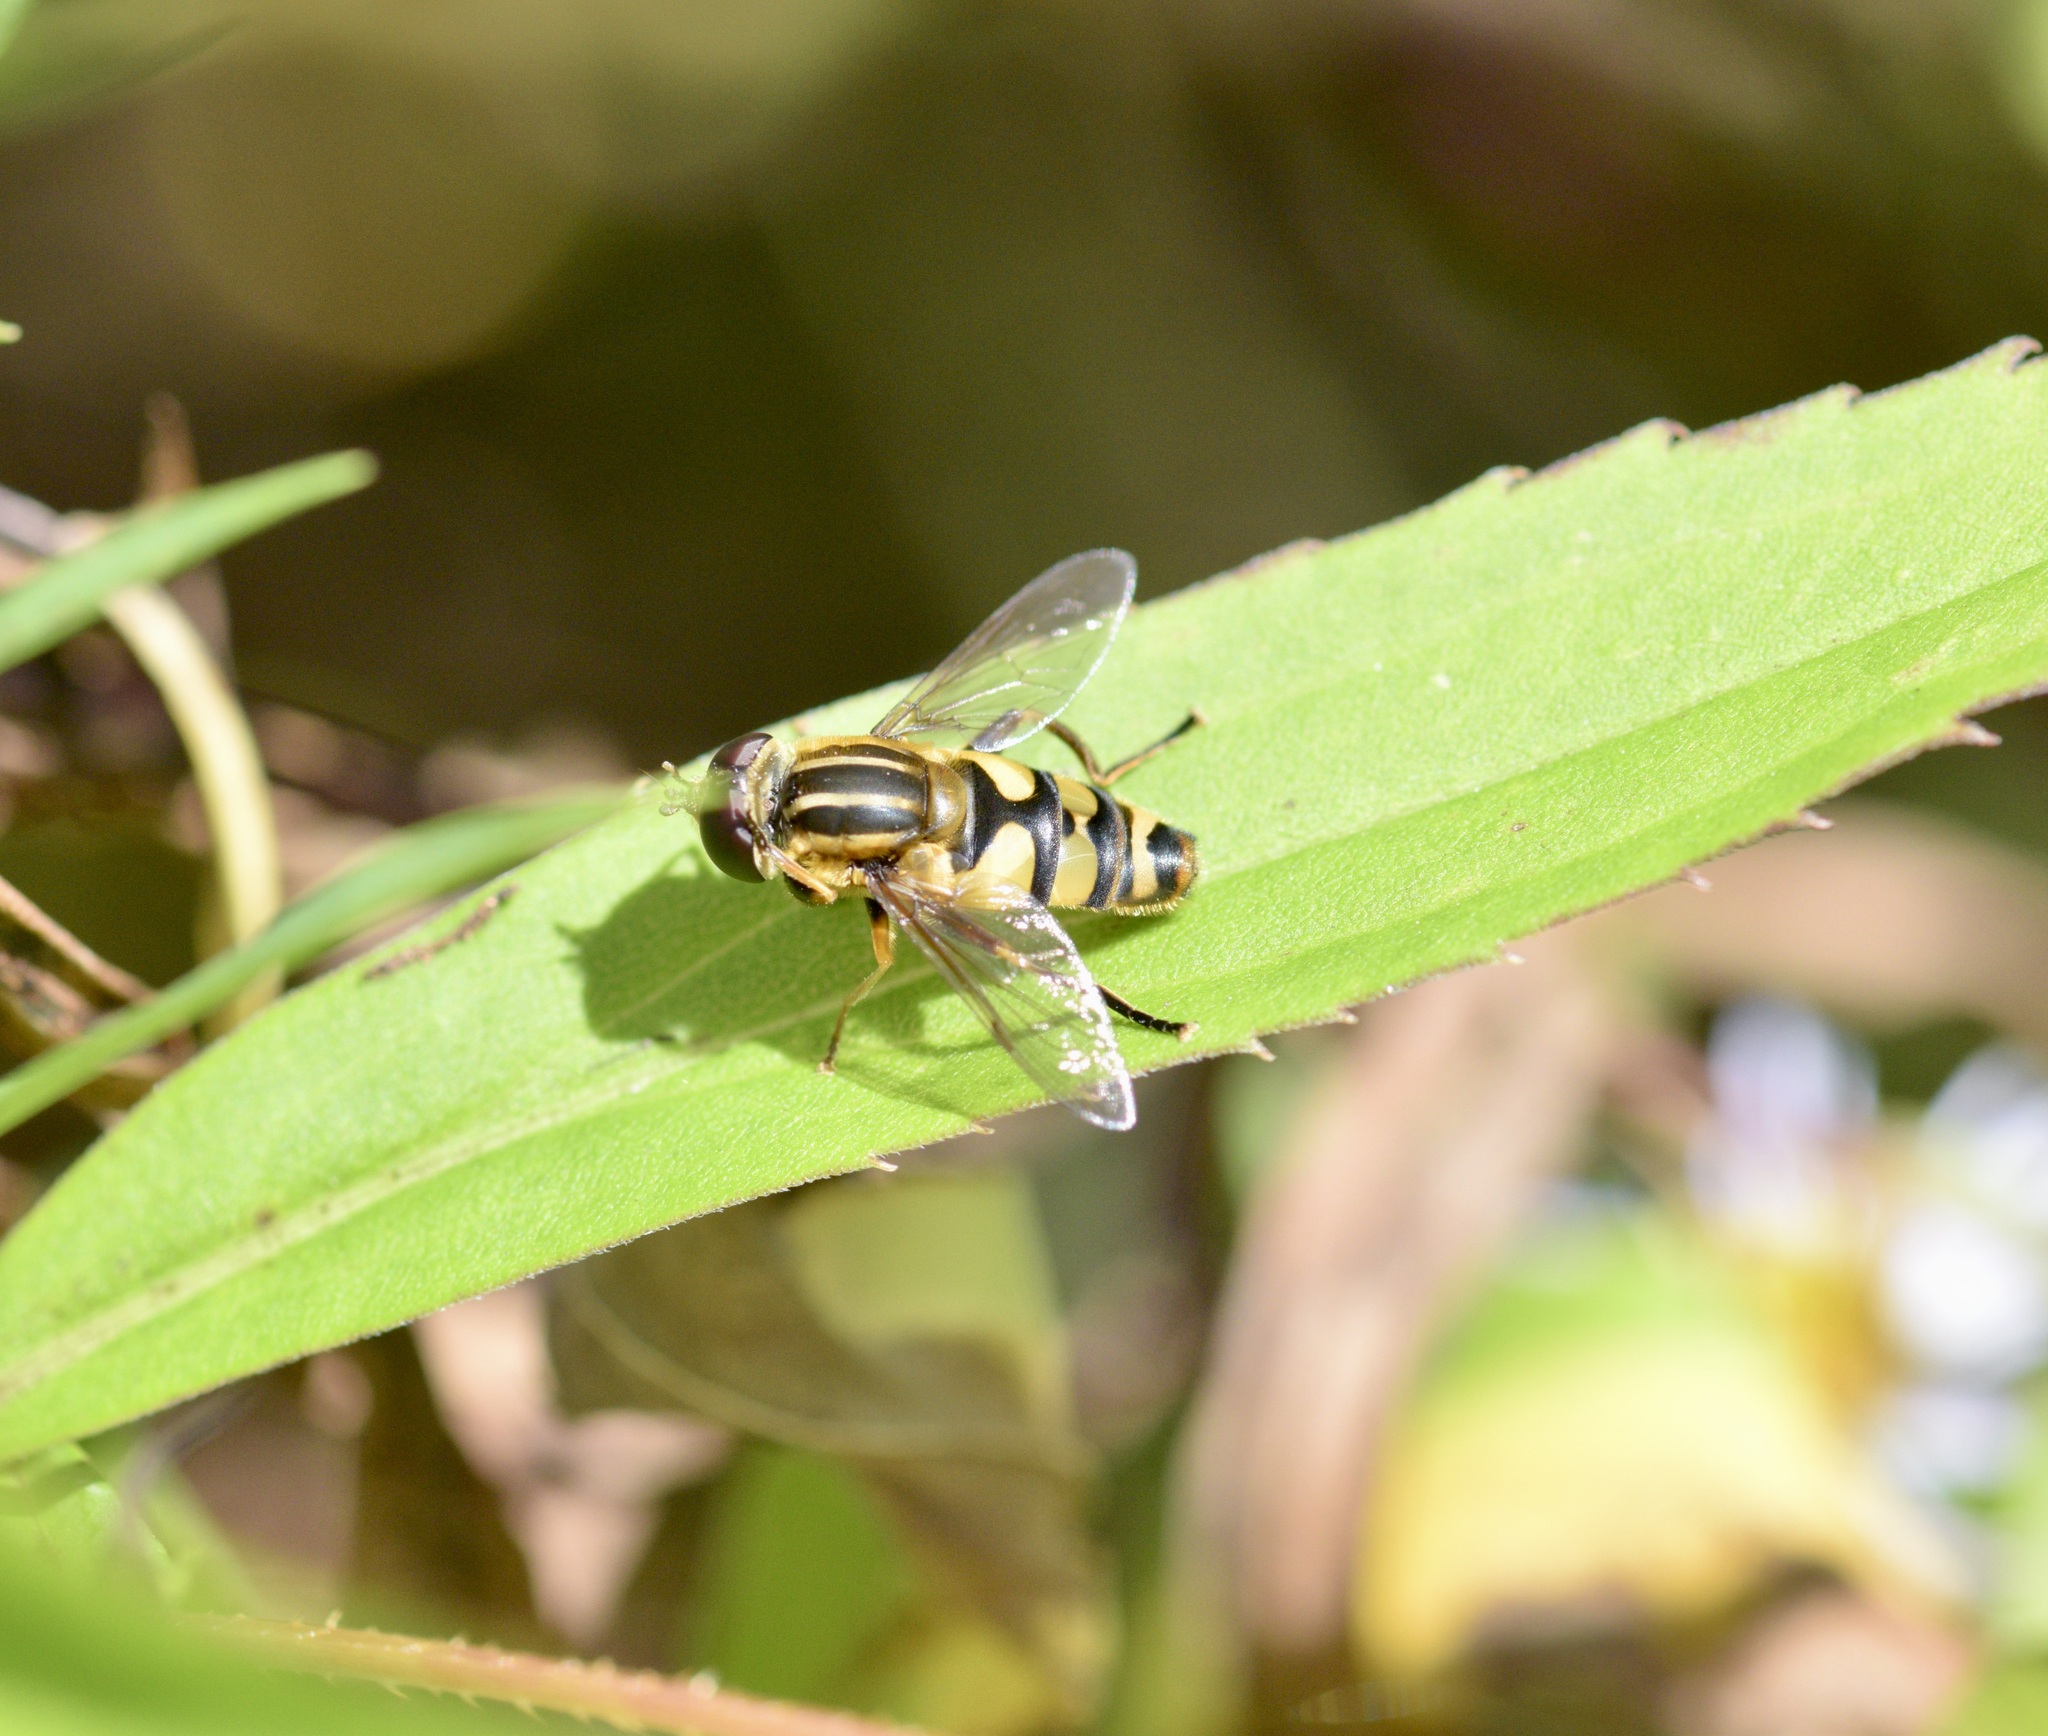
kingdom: Animalia
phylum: Arthropoda
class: Insecta
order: Diptera
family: Syrphidae
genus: Helophilus
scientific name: Helophilus fasciatus
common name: Narrow-headed marsh fly
